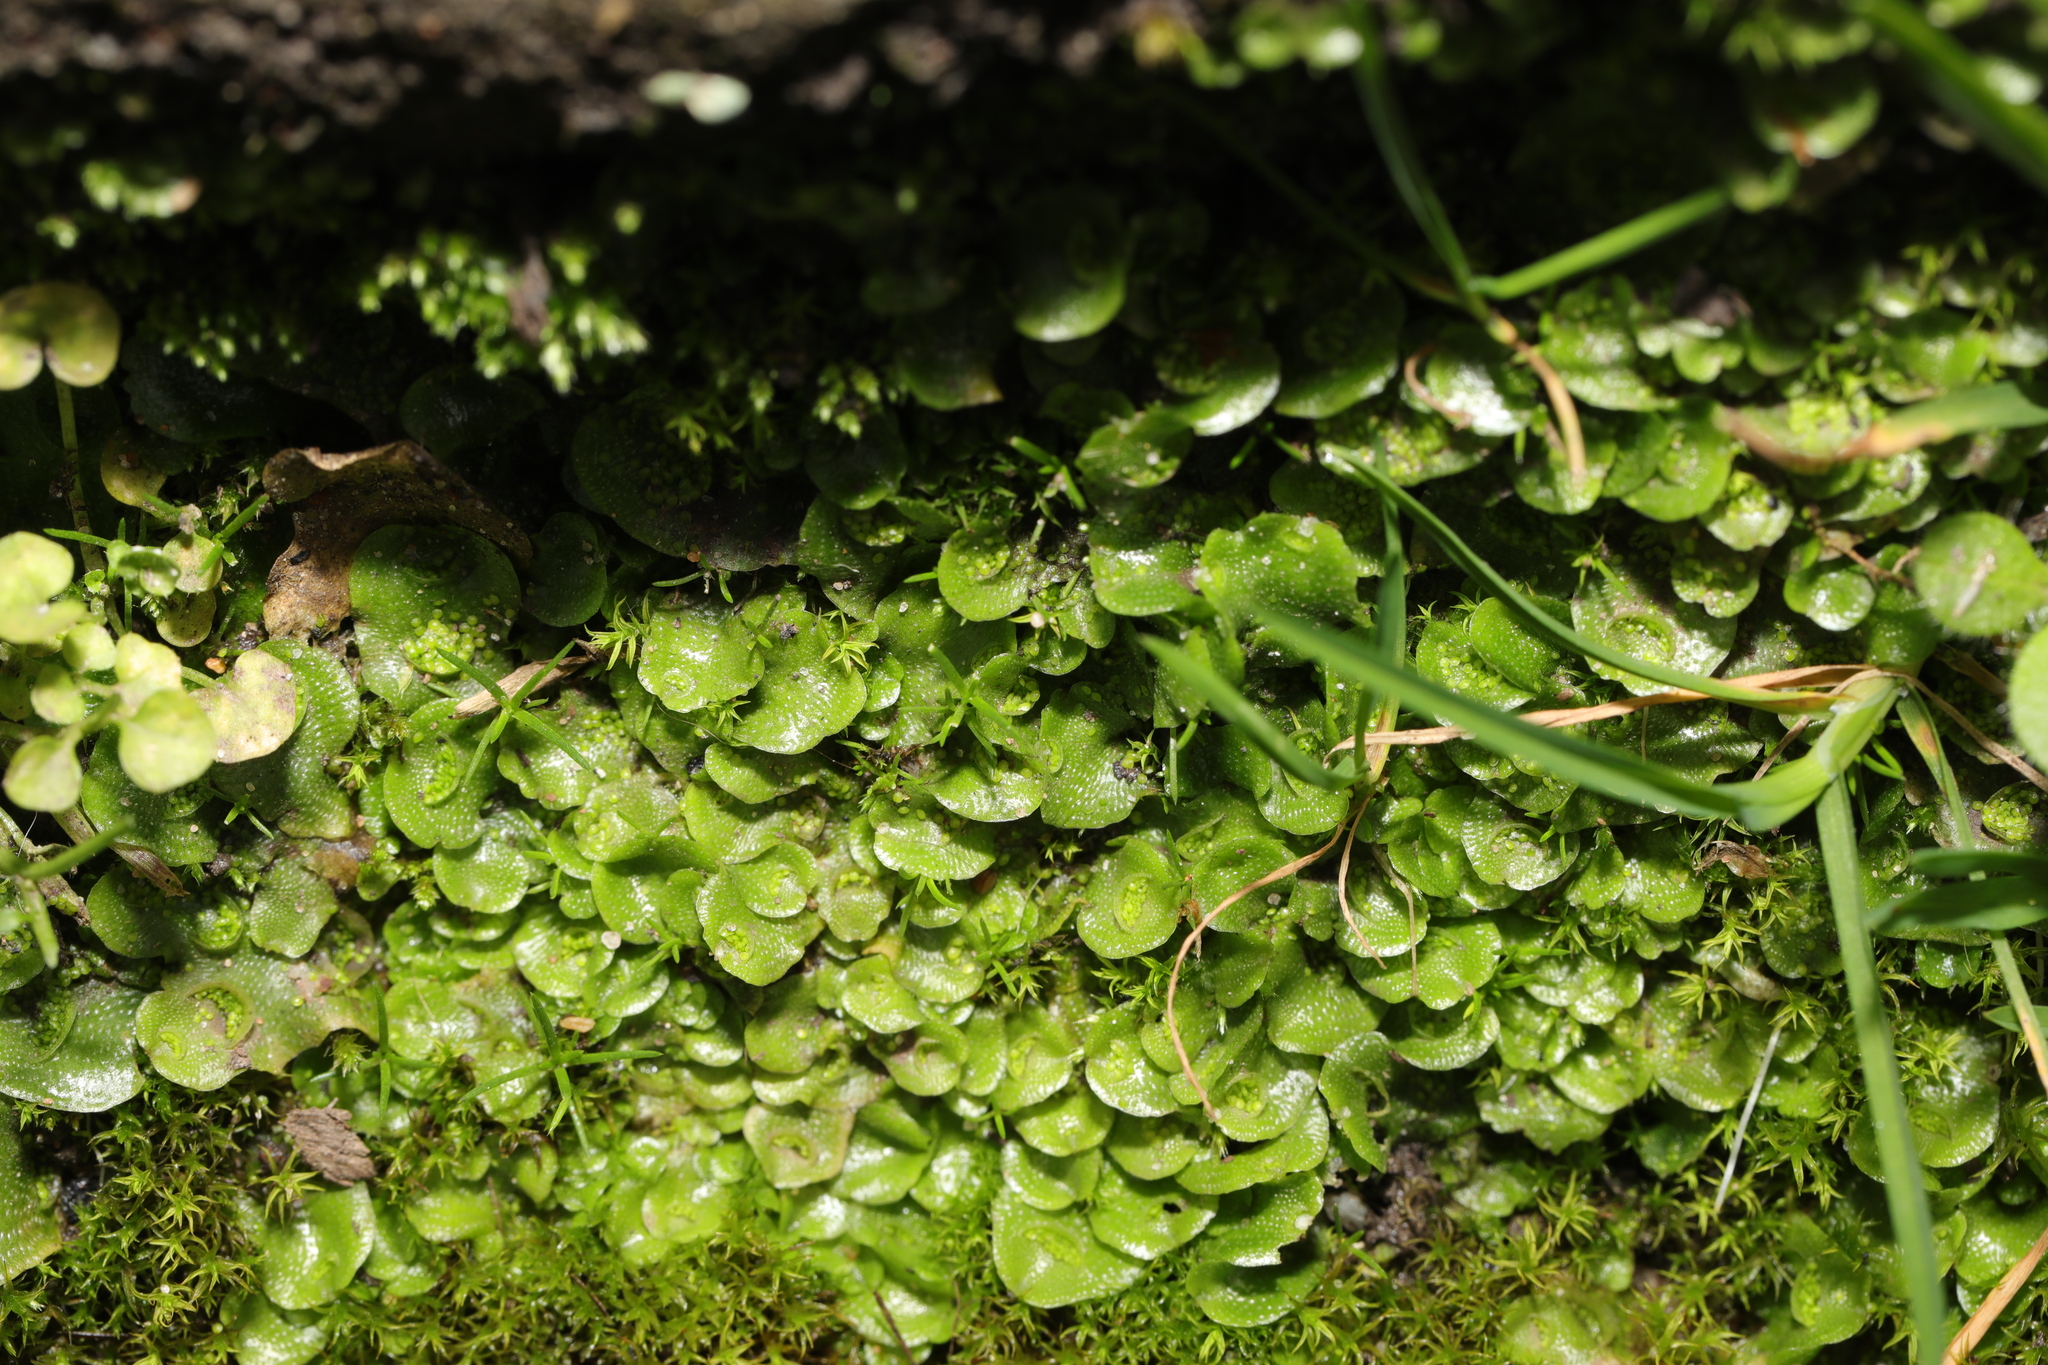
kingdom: Plantae
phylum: Marchantiophyta
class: Marchantiopsida
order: Lunulariales
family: Lunulariaceae
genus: Lunularia
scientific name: Lunularia cruciata
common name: Crescent-cup liverwort
